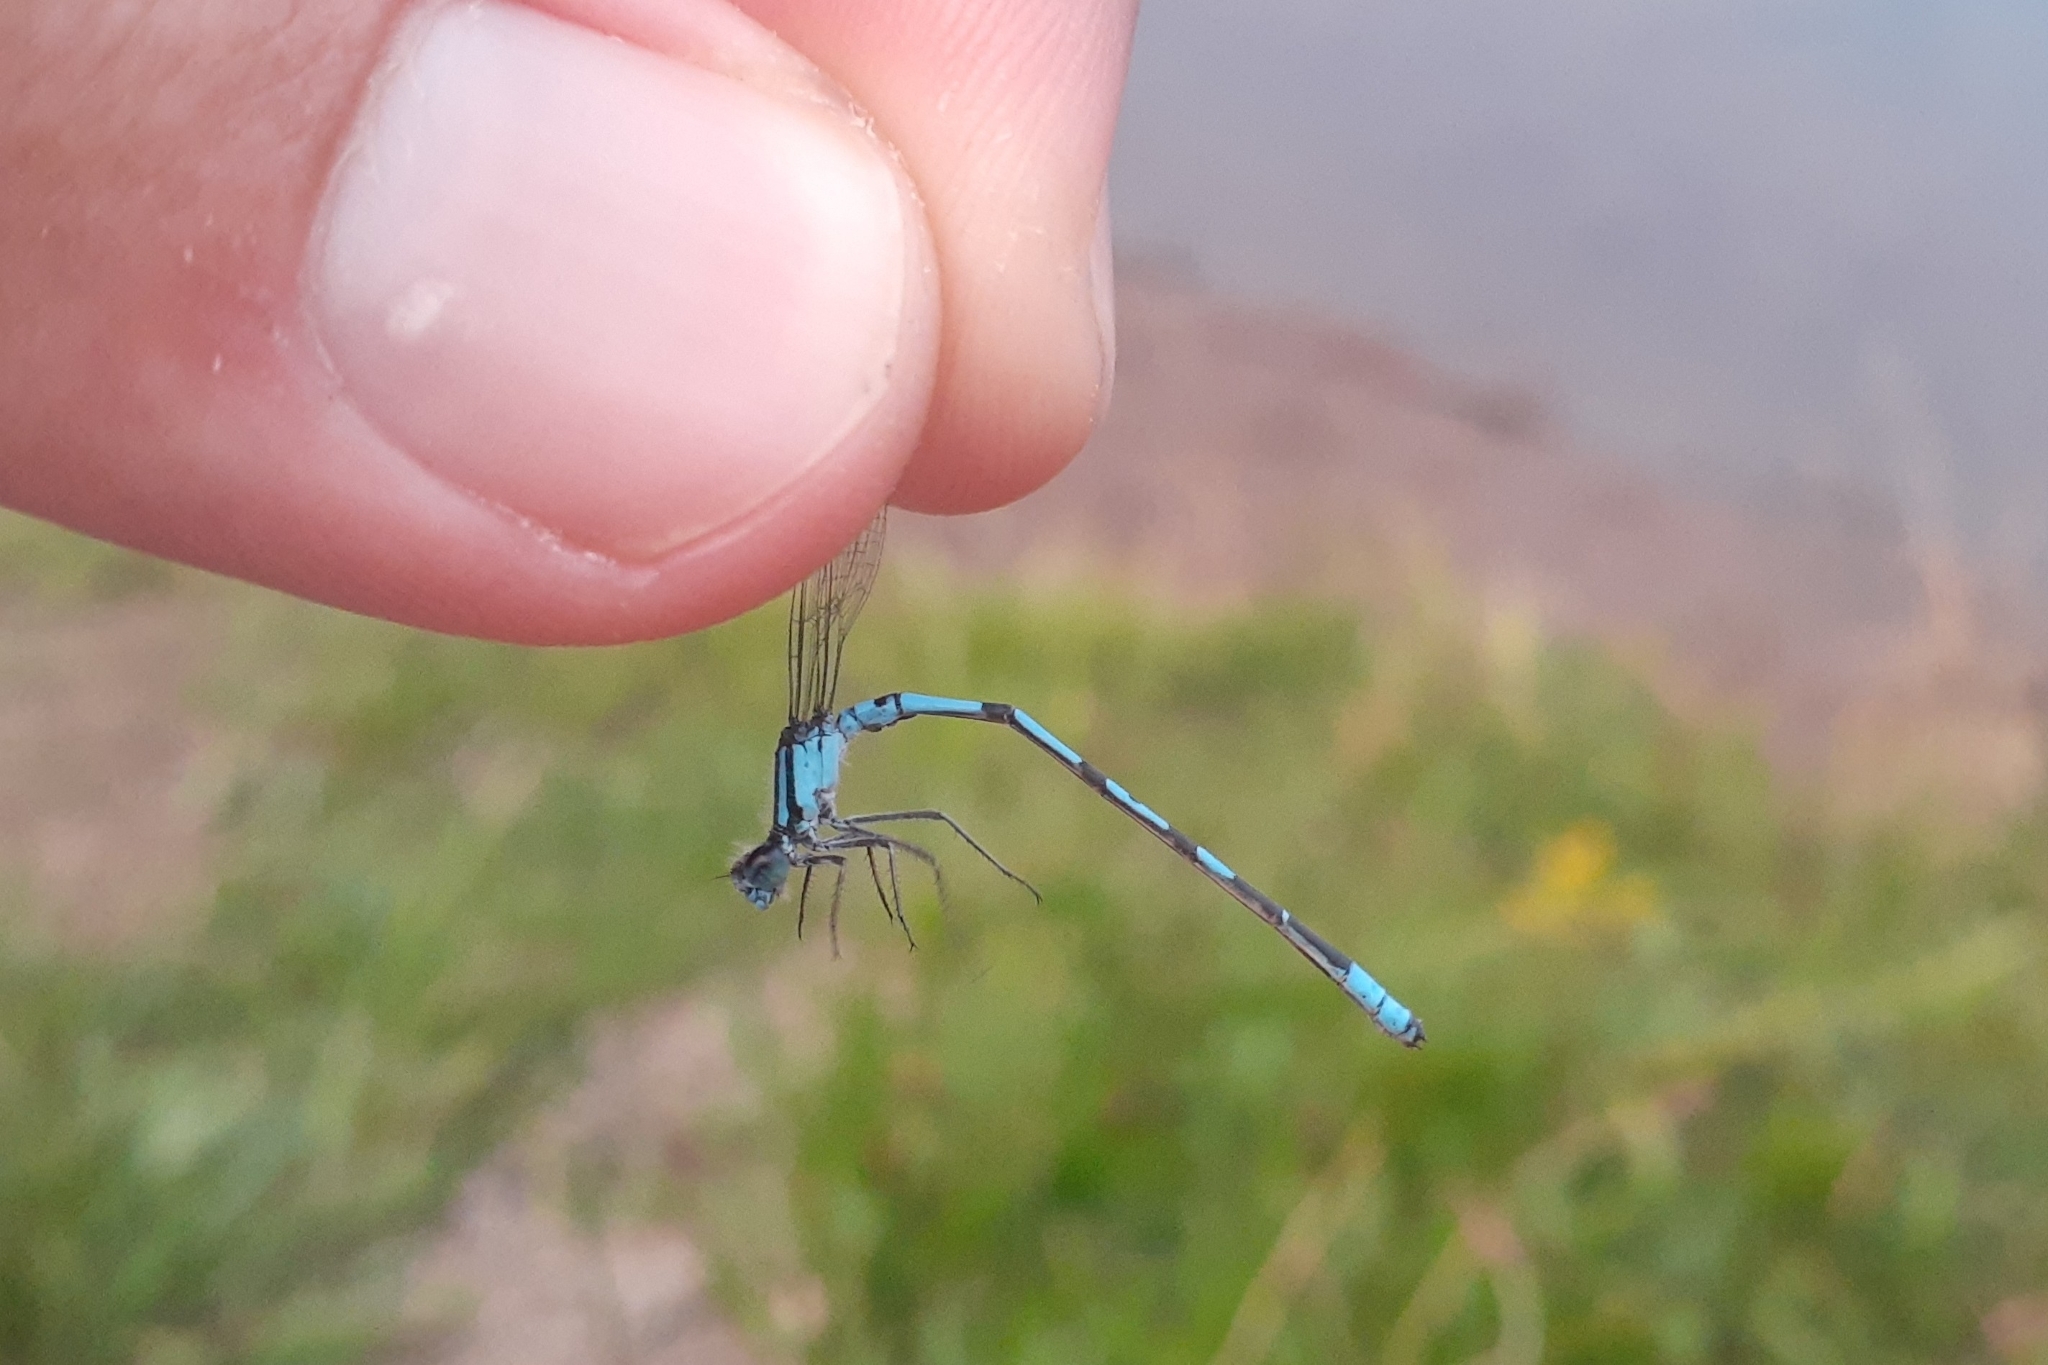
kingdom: Animalia
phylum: Arthropoda
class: Insecta
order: Odonata
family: Coenagrionidae
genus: Enallagma
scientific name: Enallagma hageni
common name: Hagen's bluet
